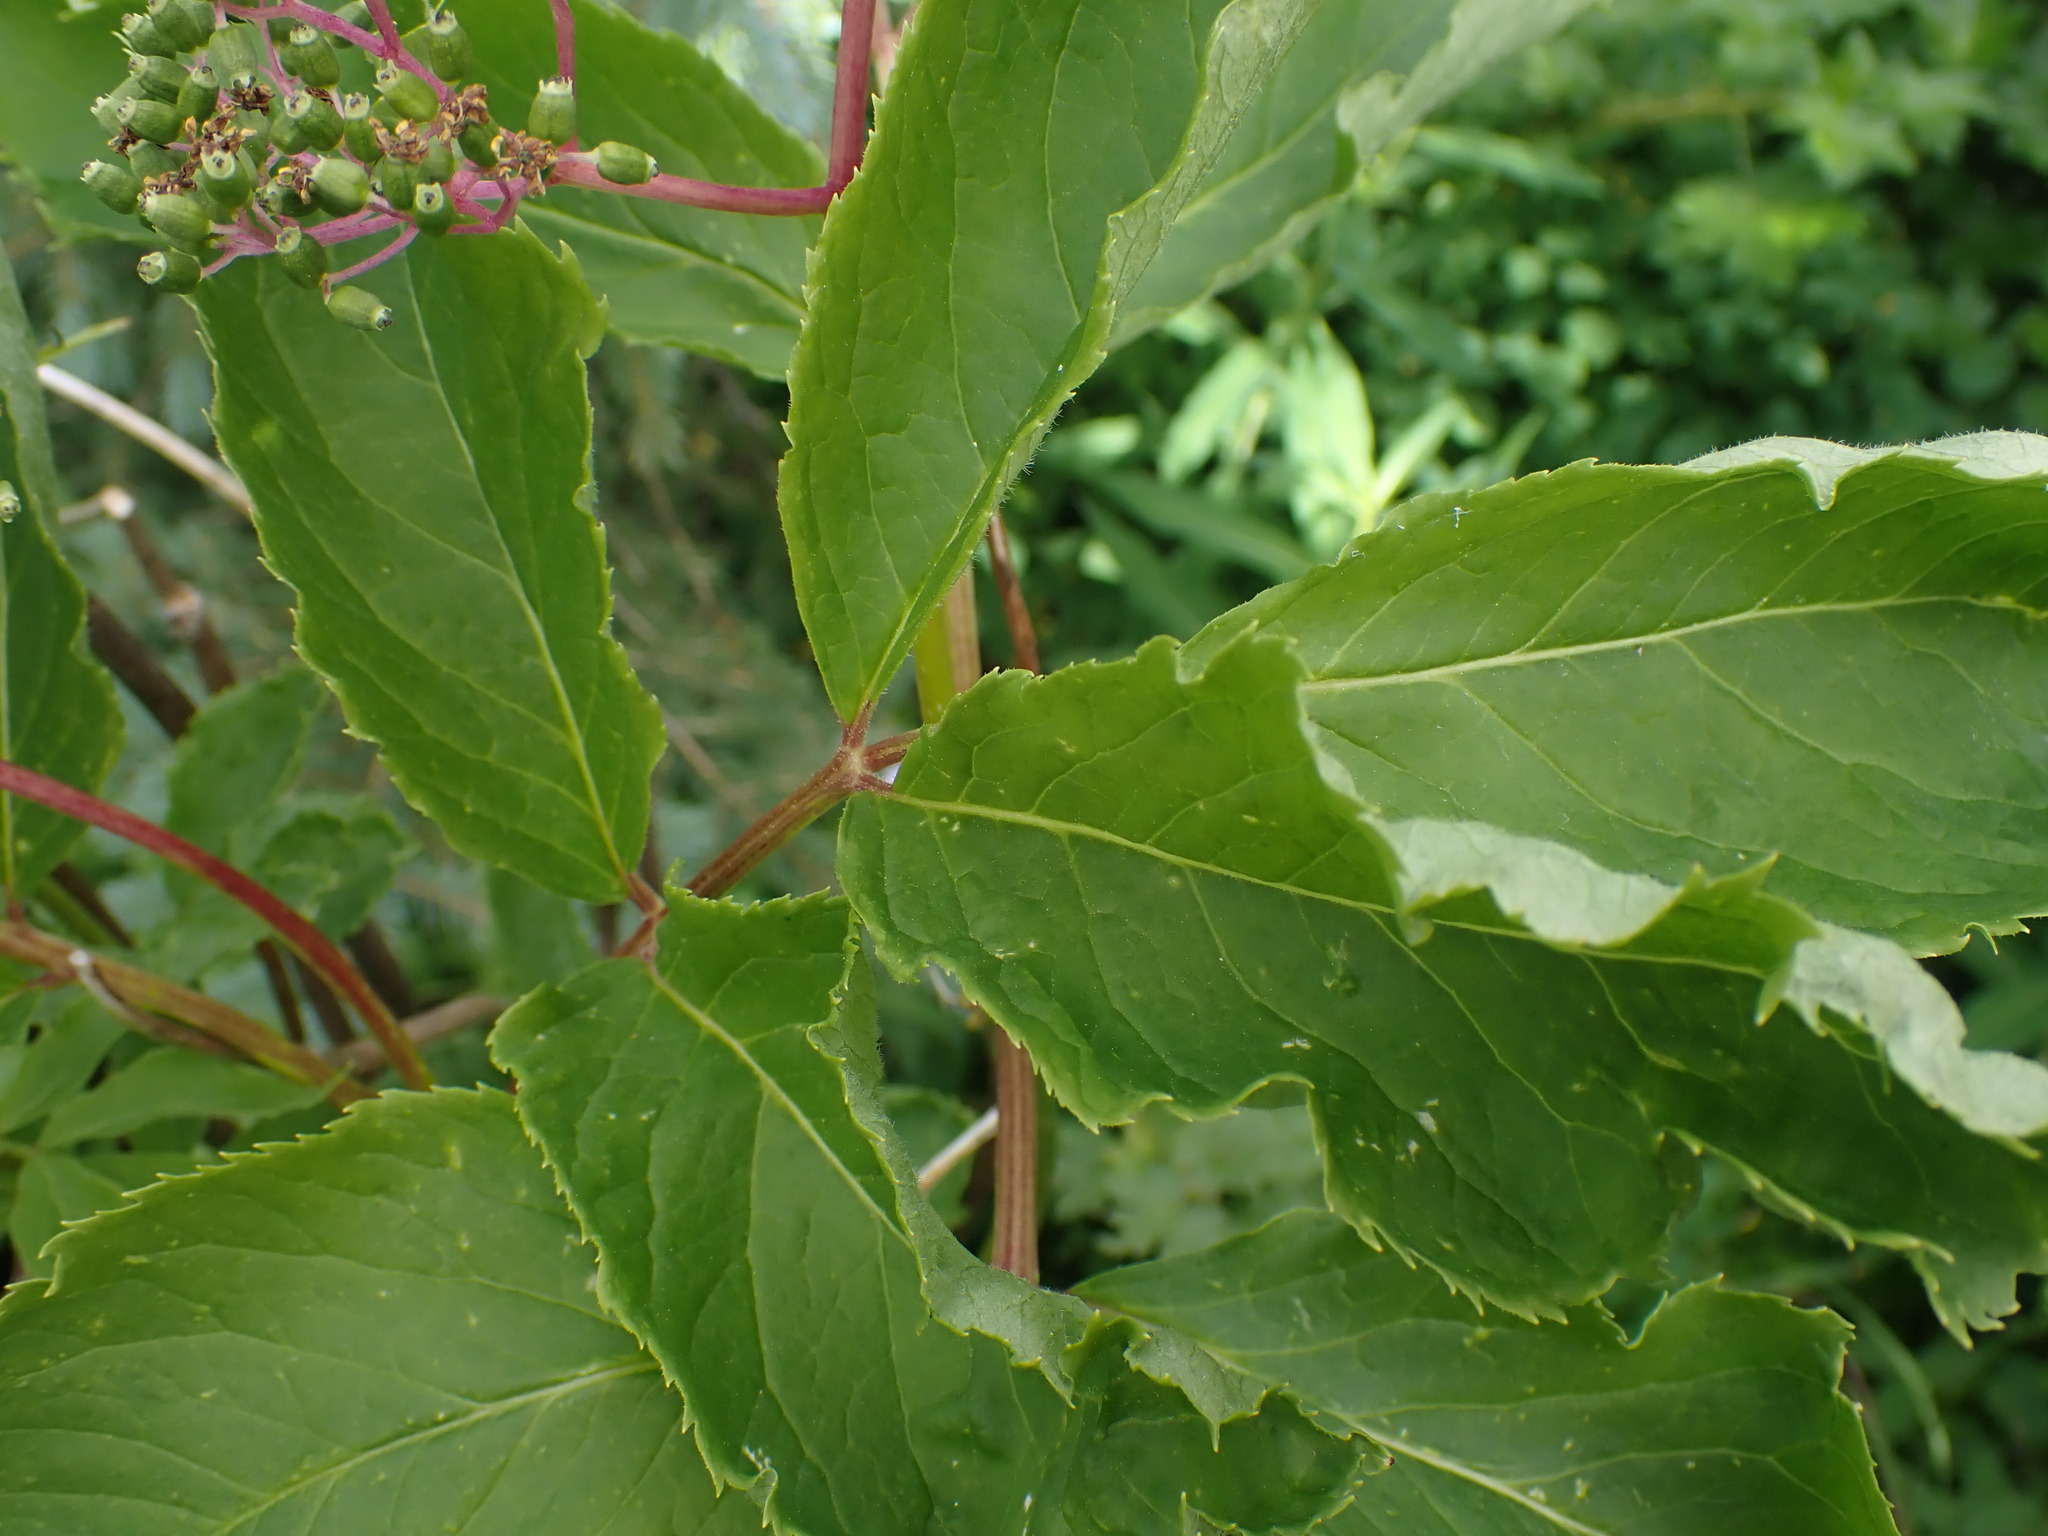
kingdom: Plantae
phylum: Tracheophyta
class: Magnoliopsida
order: Dipsacales
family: Viburnaceae
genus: Sambucus
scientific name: Sambucus racemosa
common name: Red-berried elder
